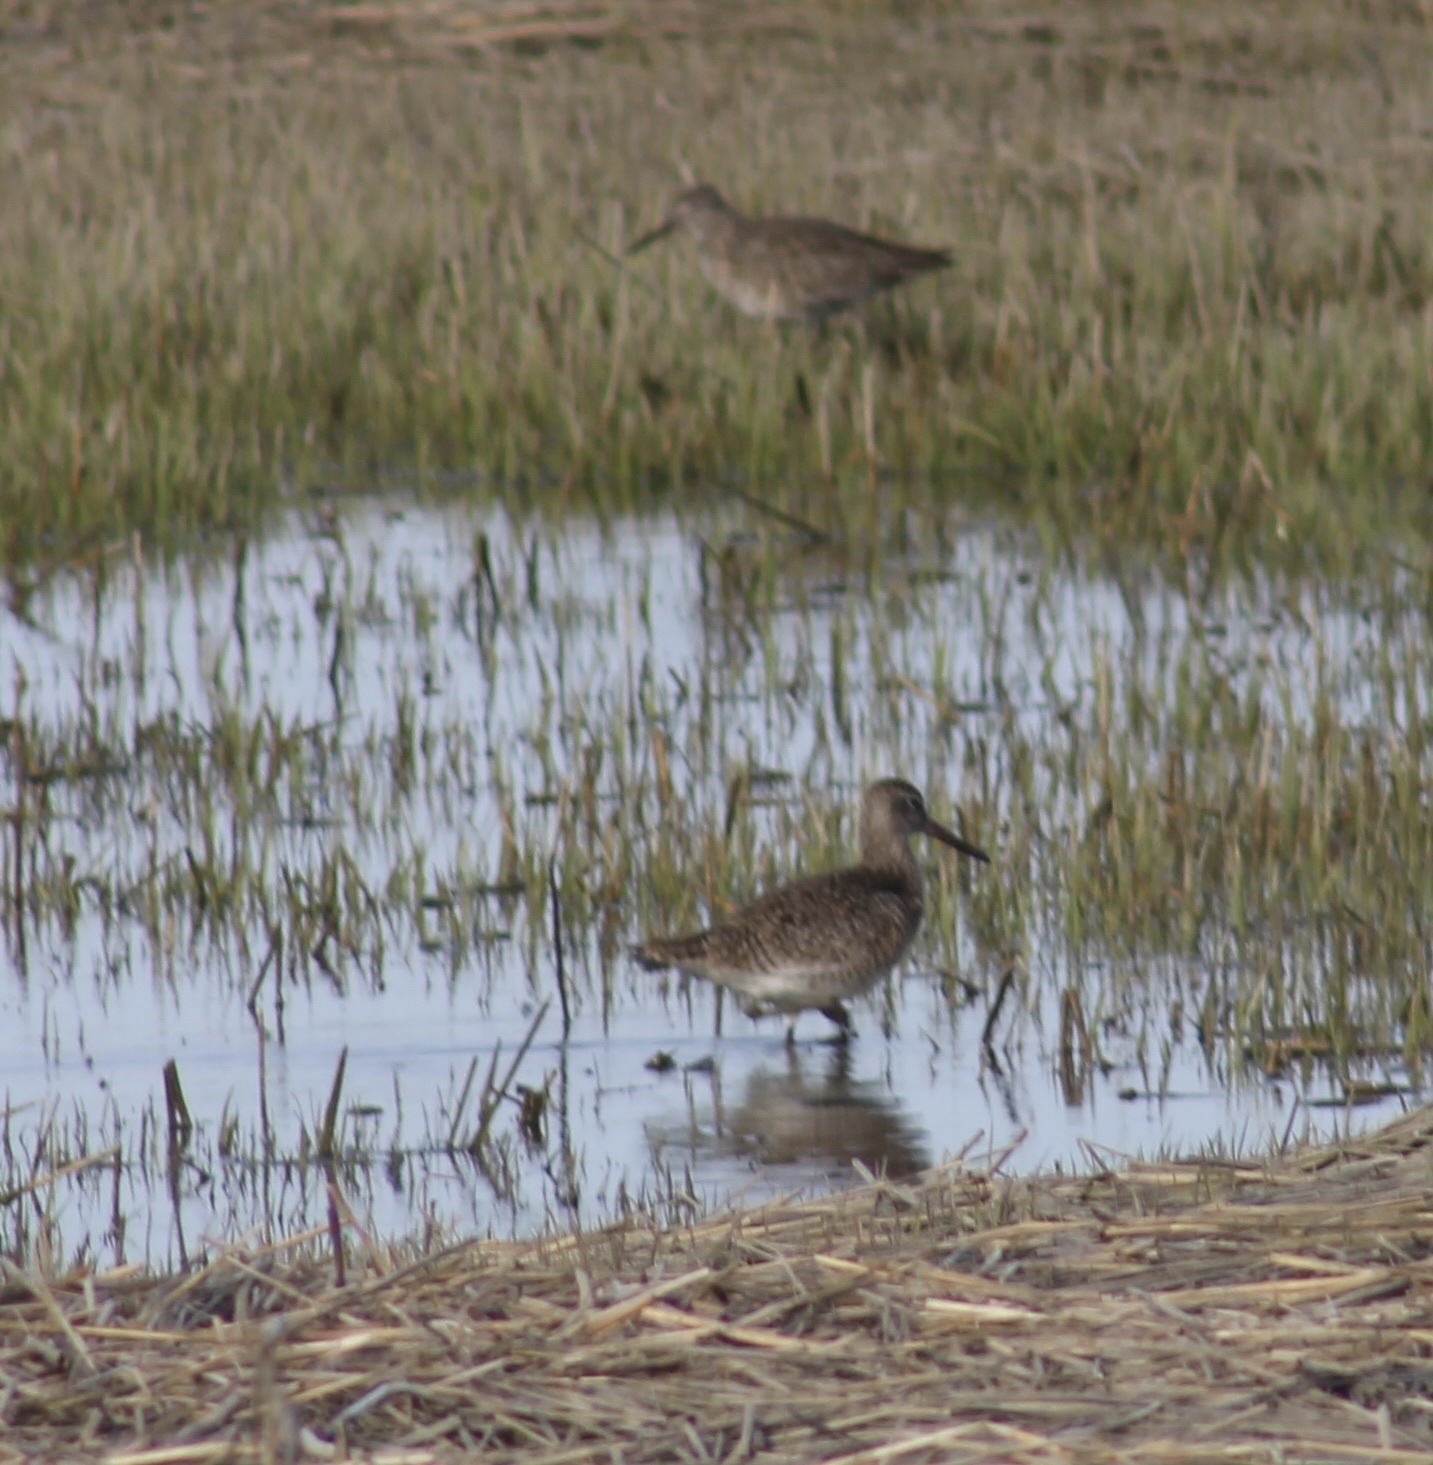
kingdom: Animalia
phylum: Chordata
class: Aves
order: Charadriiformes
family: Scolopacidae
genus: Tringa
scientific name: Tringa semipalmata
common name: Willet
